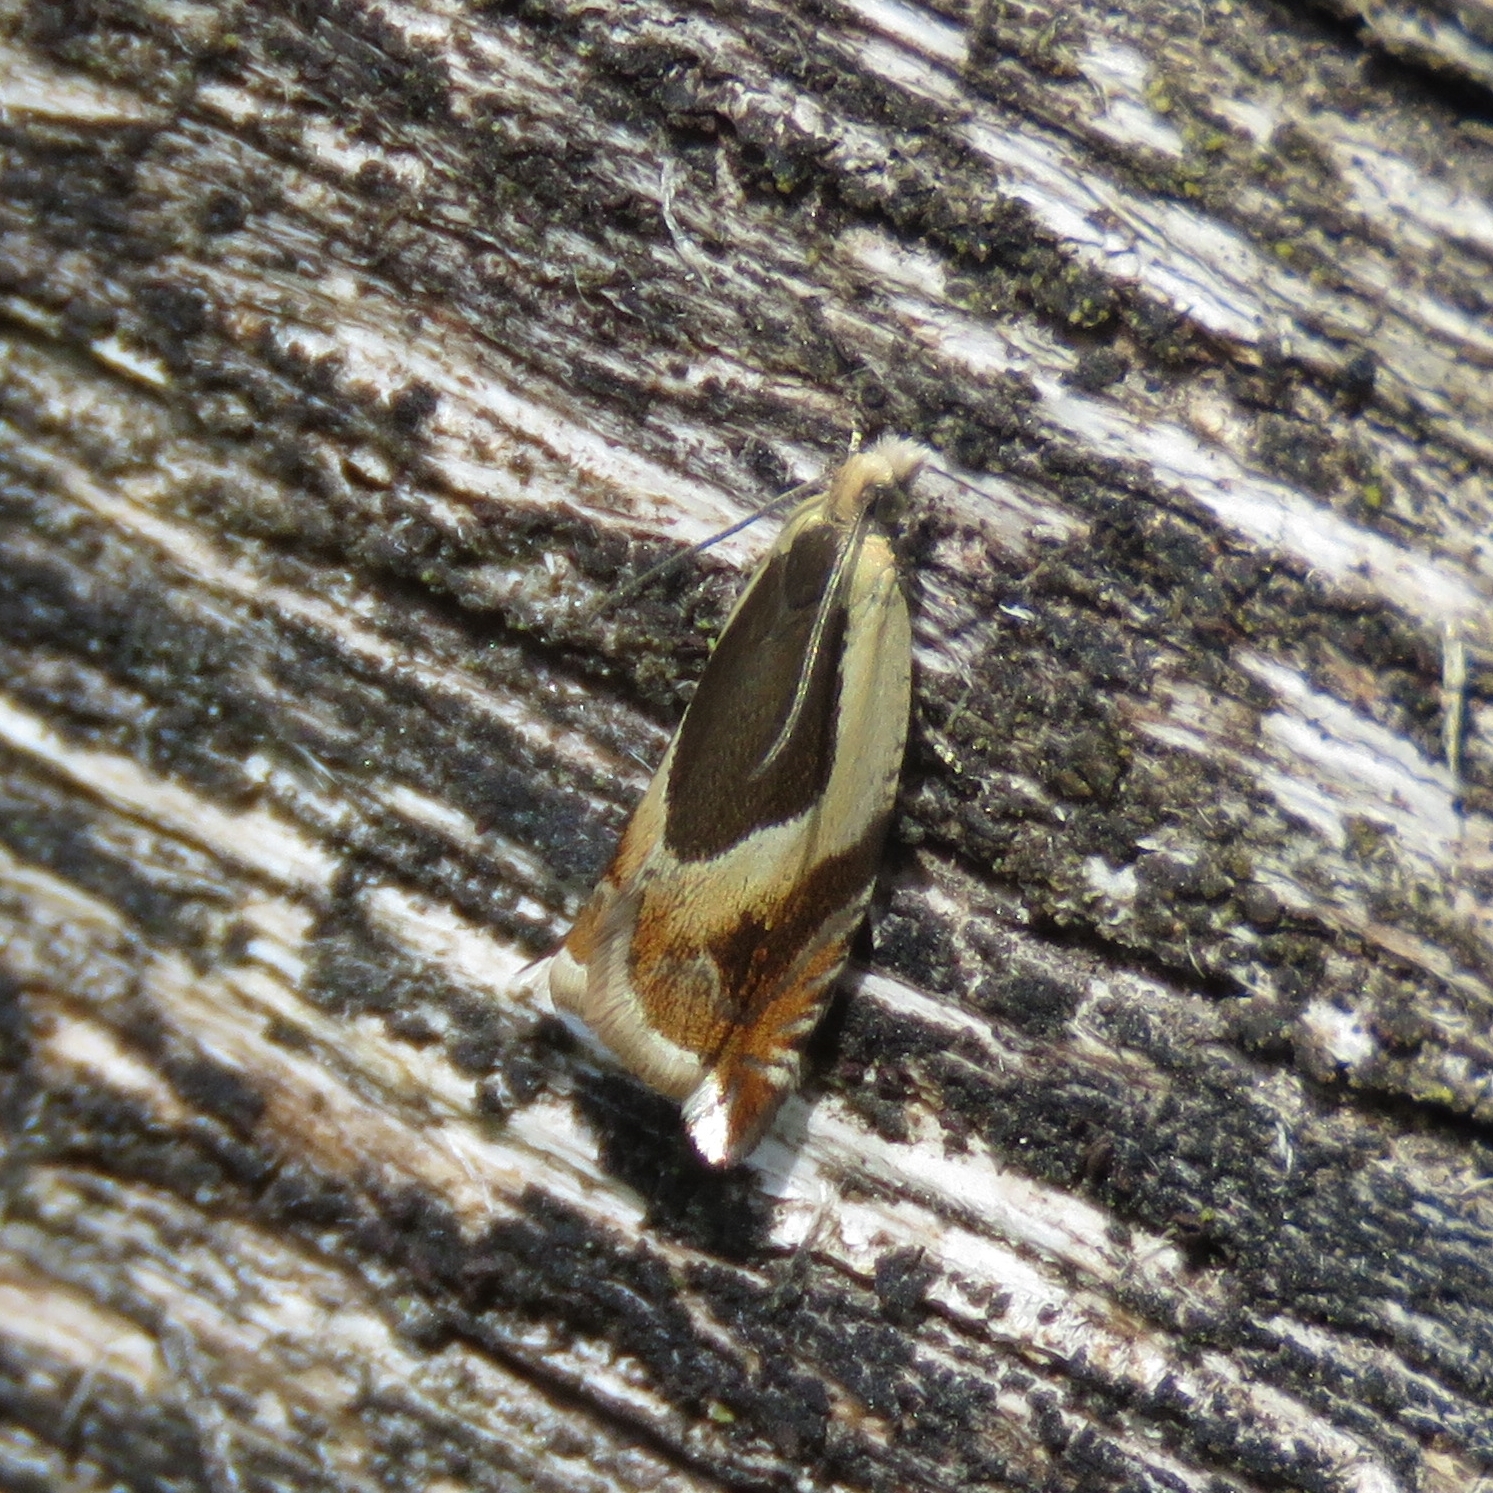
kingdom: Animalia
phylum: Arthropoda
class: Insecta
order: Lepidoptera
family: Tortricidae
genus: Ancylis
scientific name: Ancylis badiana
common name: Common roller
